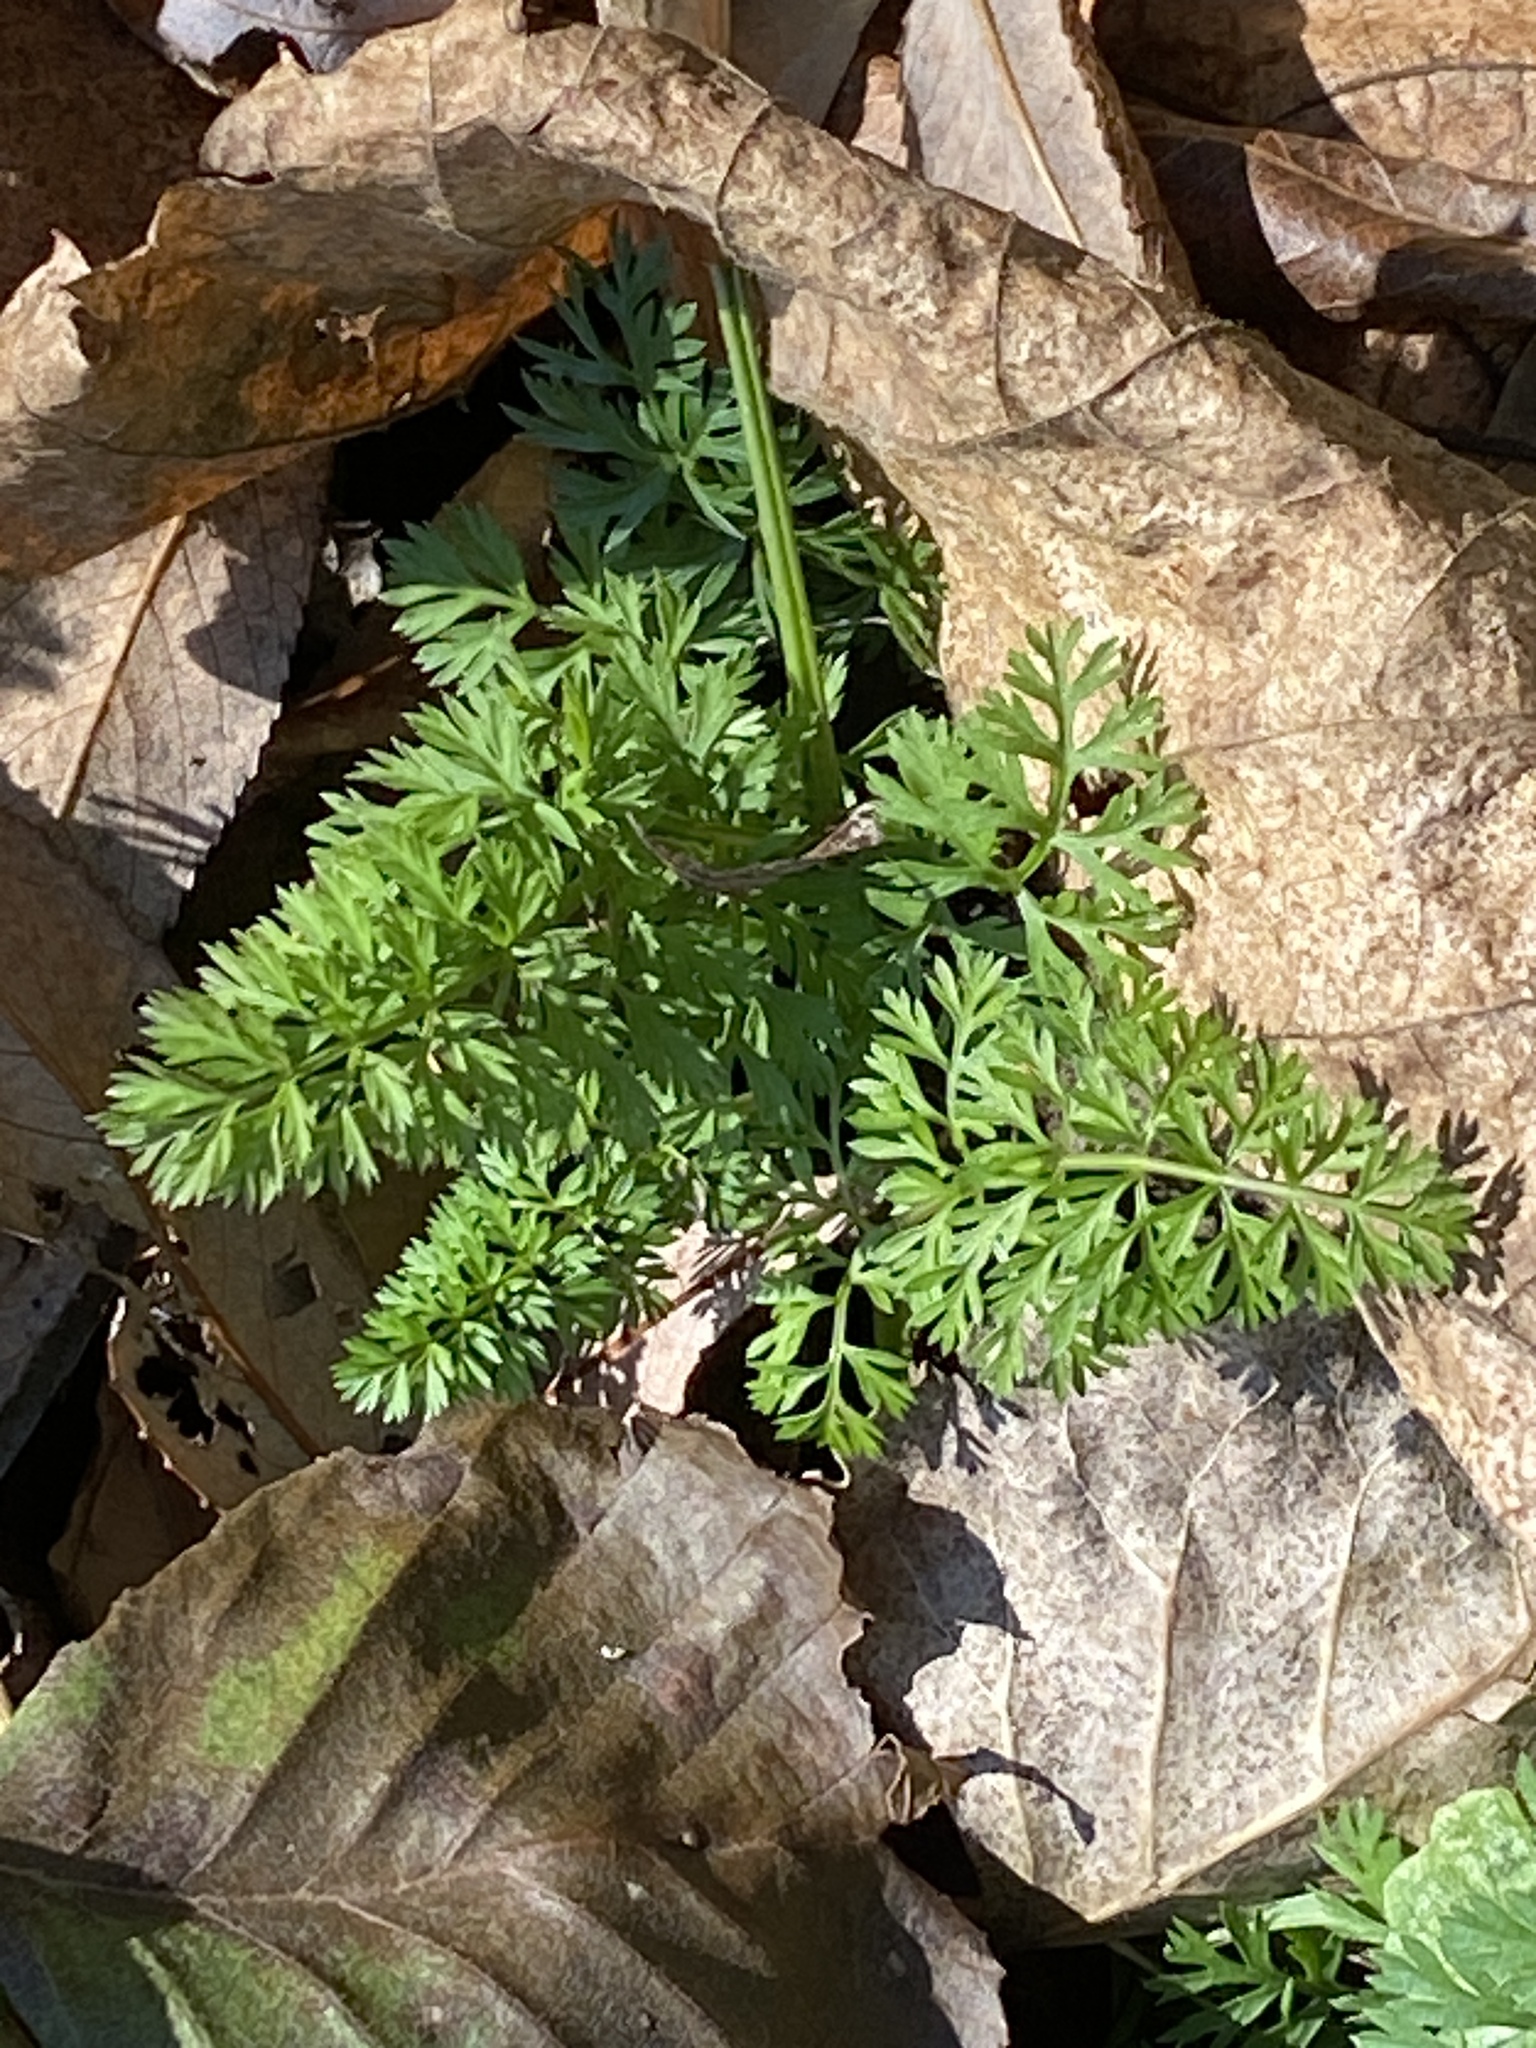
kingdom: Plantae
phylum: Tracheophyta
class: Magnoliopsida
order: Apiales
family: Apiaceae
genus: Daucus
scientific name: Daucus carota
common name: Wild carrot
